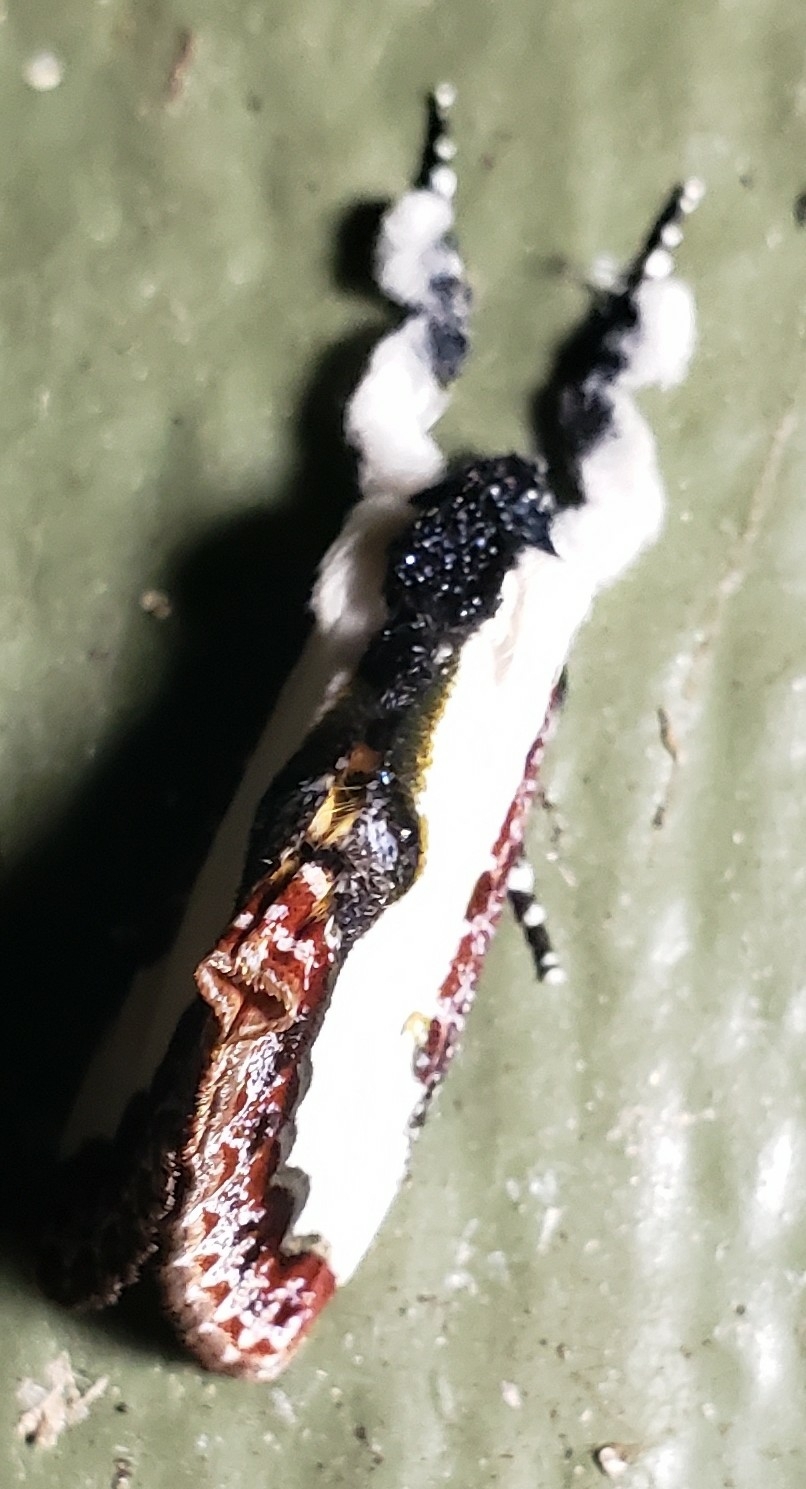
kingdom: Animalia
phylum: Arthropoda
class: Insecta
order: Lepidoptera
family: Noctuidae
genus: Eudryas
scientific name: Eudryas unio
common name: Pearly wood-nymph
